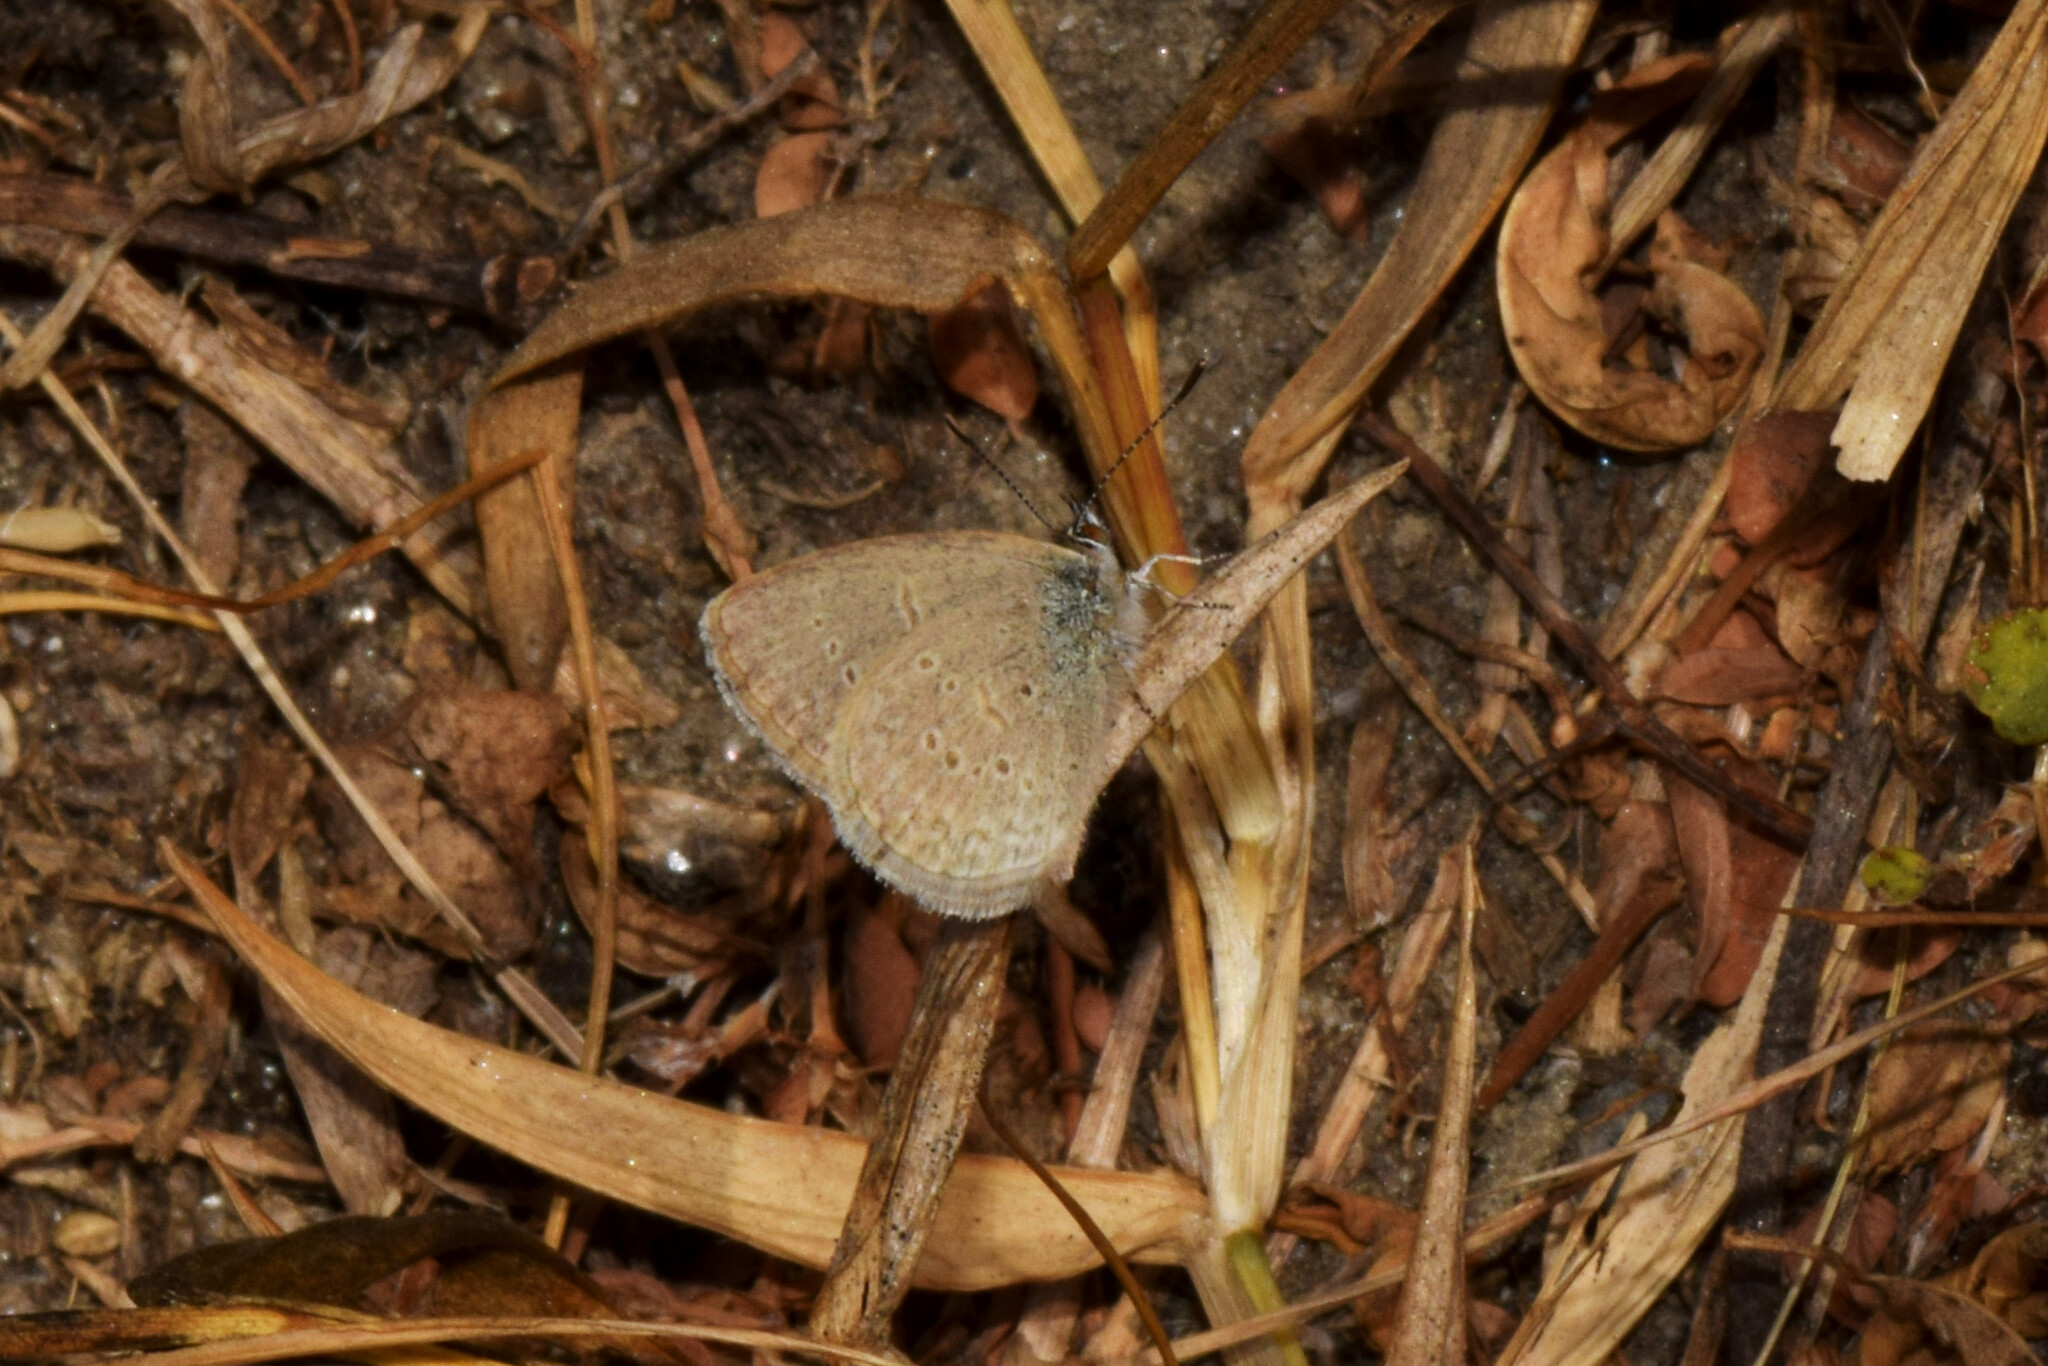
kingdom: Animalia
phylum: Arthropoda
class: Insecta
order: Lepidoptera
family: Lycaenidae
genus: Zizina
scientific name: Zizina otis
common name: Lesser grass blue
